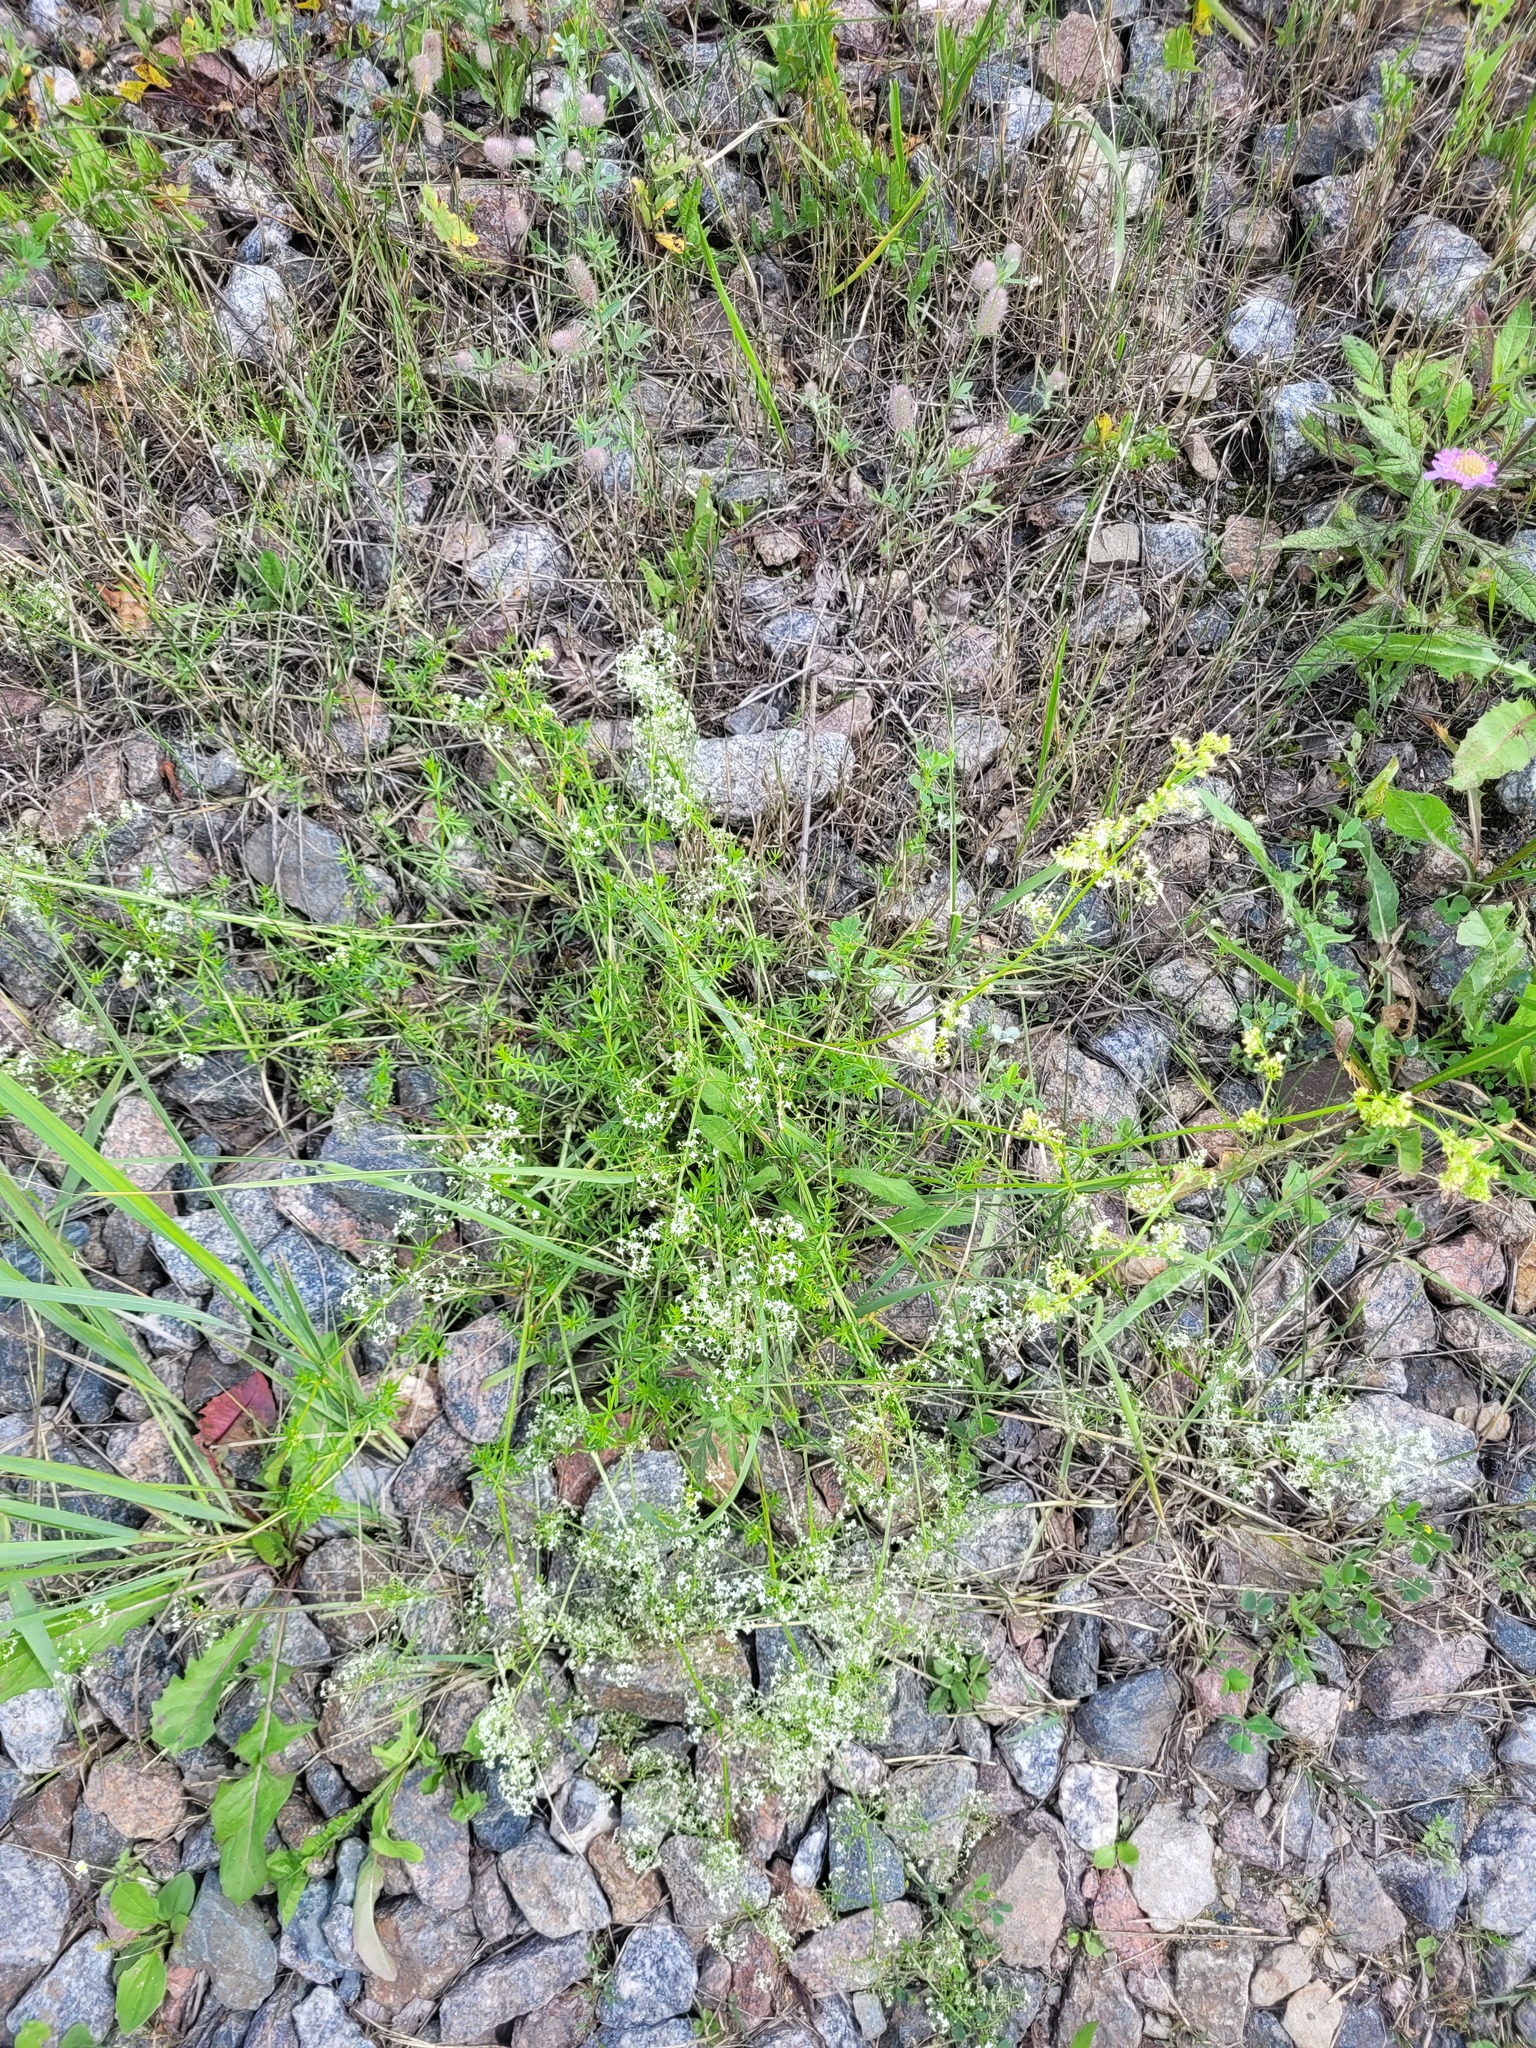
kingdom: Plantae
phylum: Tracheophyta
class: Magnoliopsida
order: Gentianales
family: Rubiaceae
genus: Galium
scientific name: Galium mollugo
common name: Hedge bedstraw
